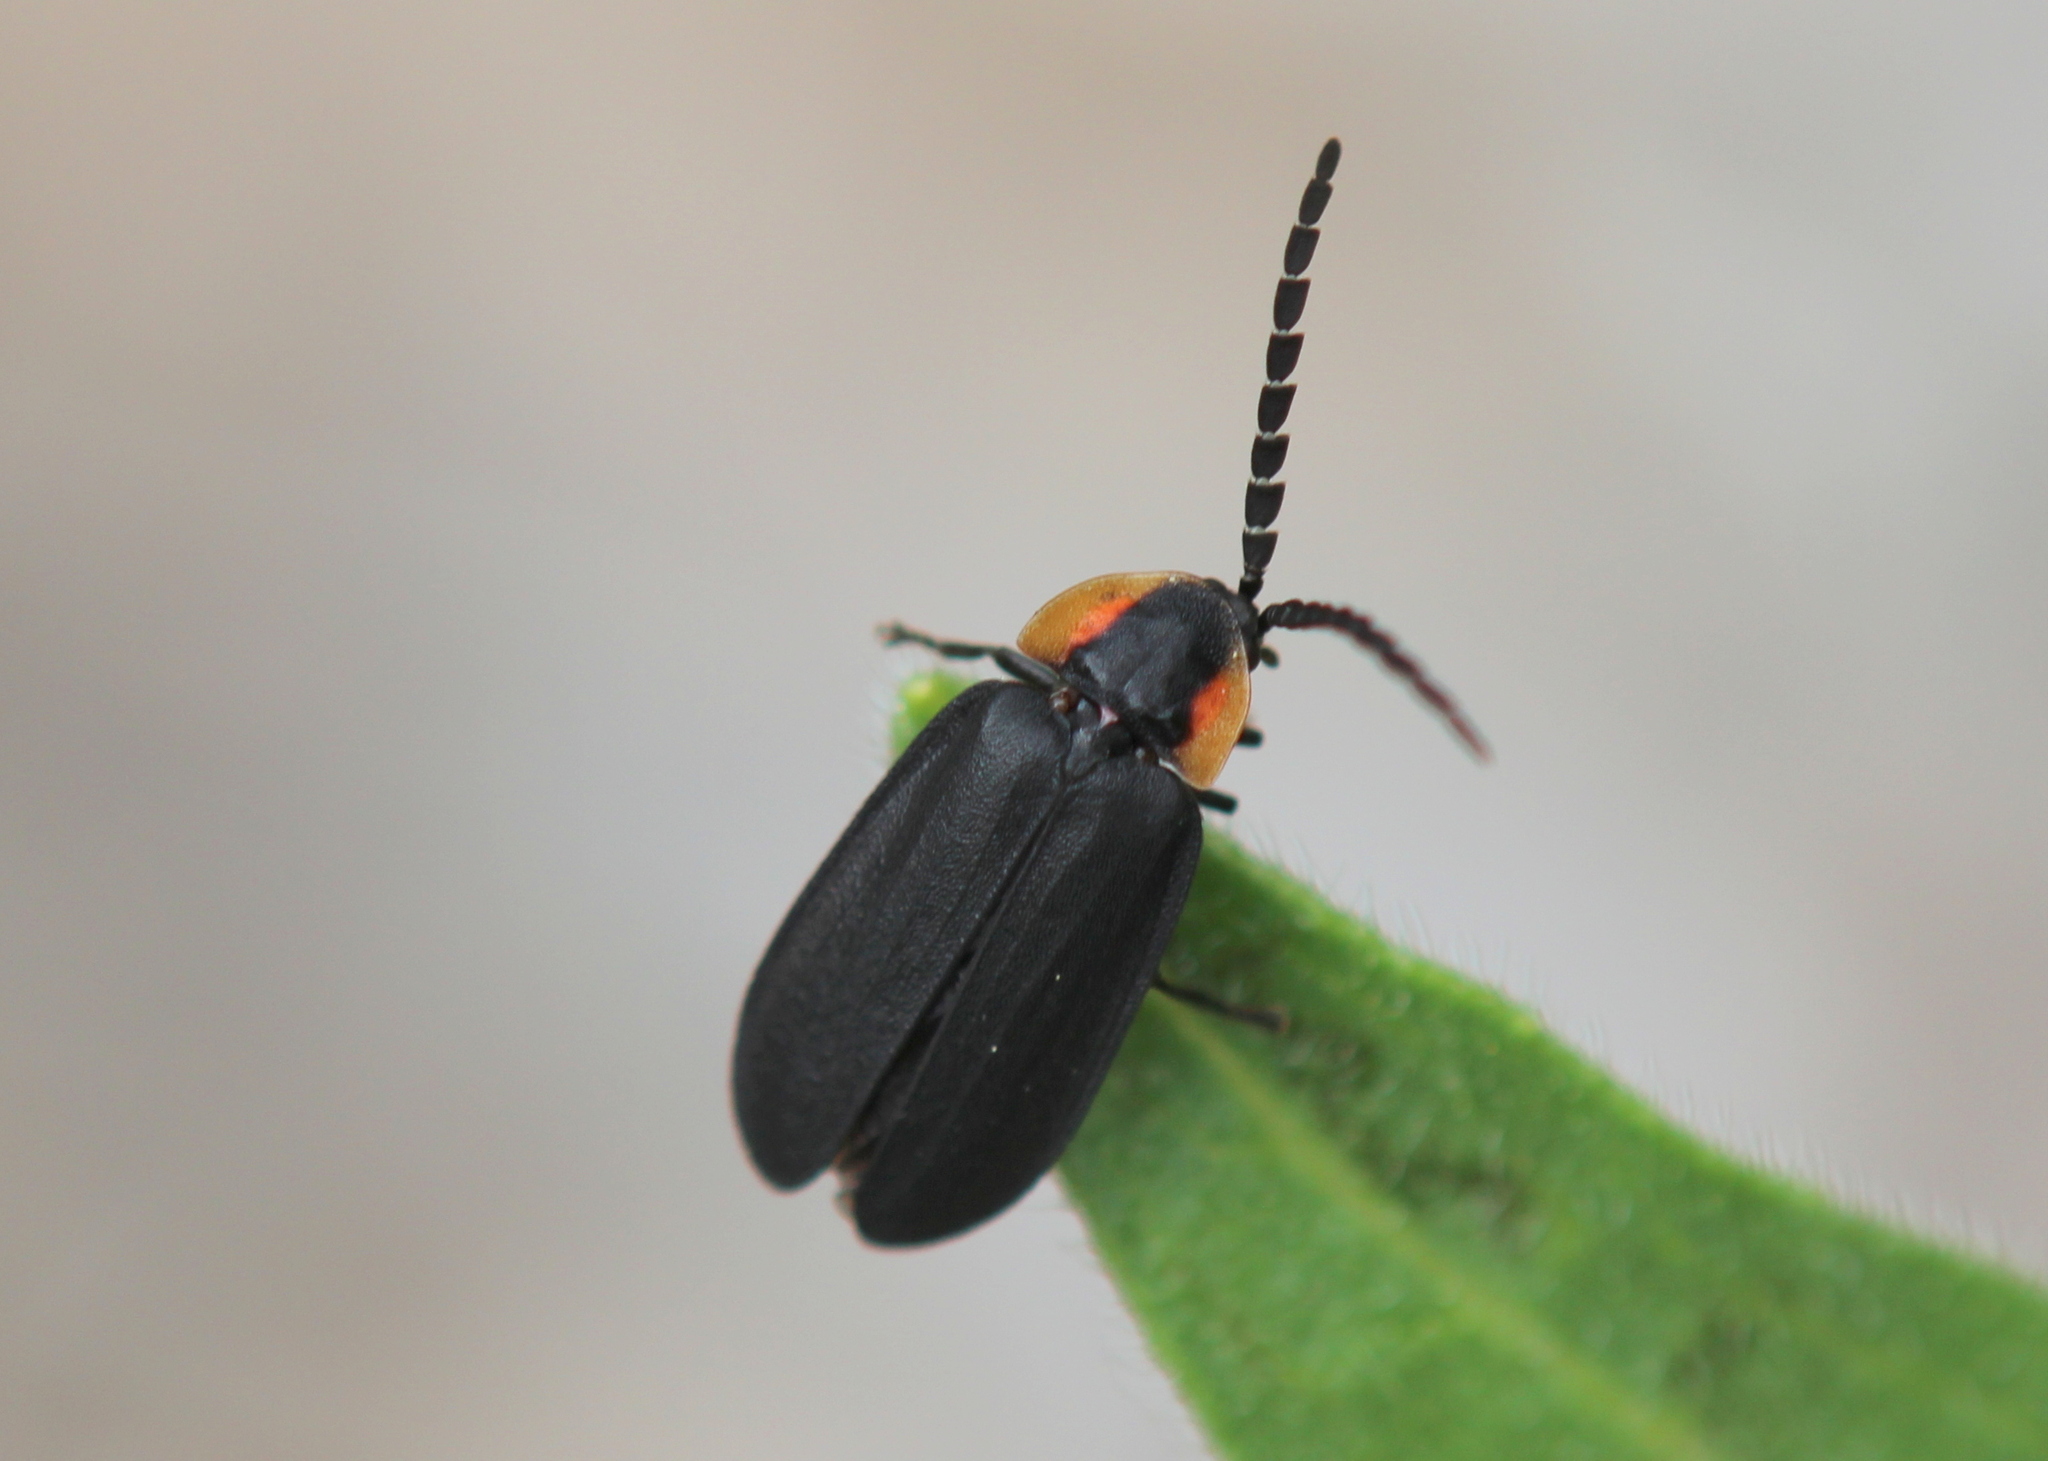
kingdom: Animalia
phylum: Arthropoda
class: Insecta
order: Coleoptera
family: Lampyridae
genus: Lucidota
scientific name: Lucidota atra
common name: Black firefly
